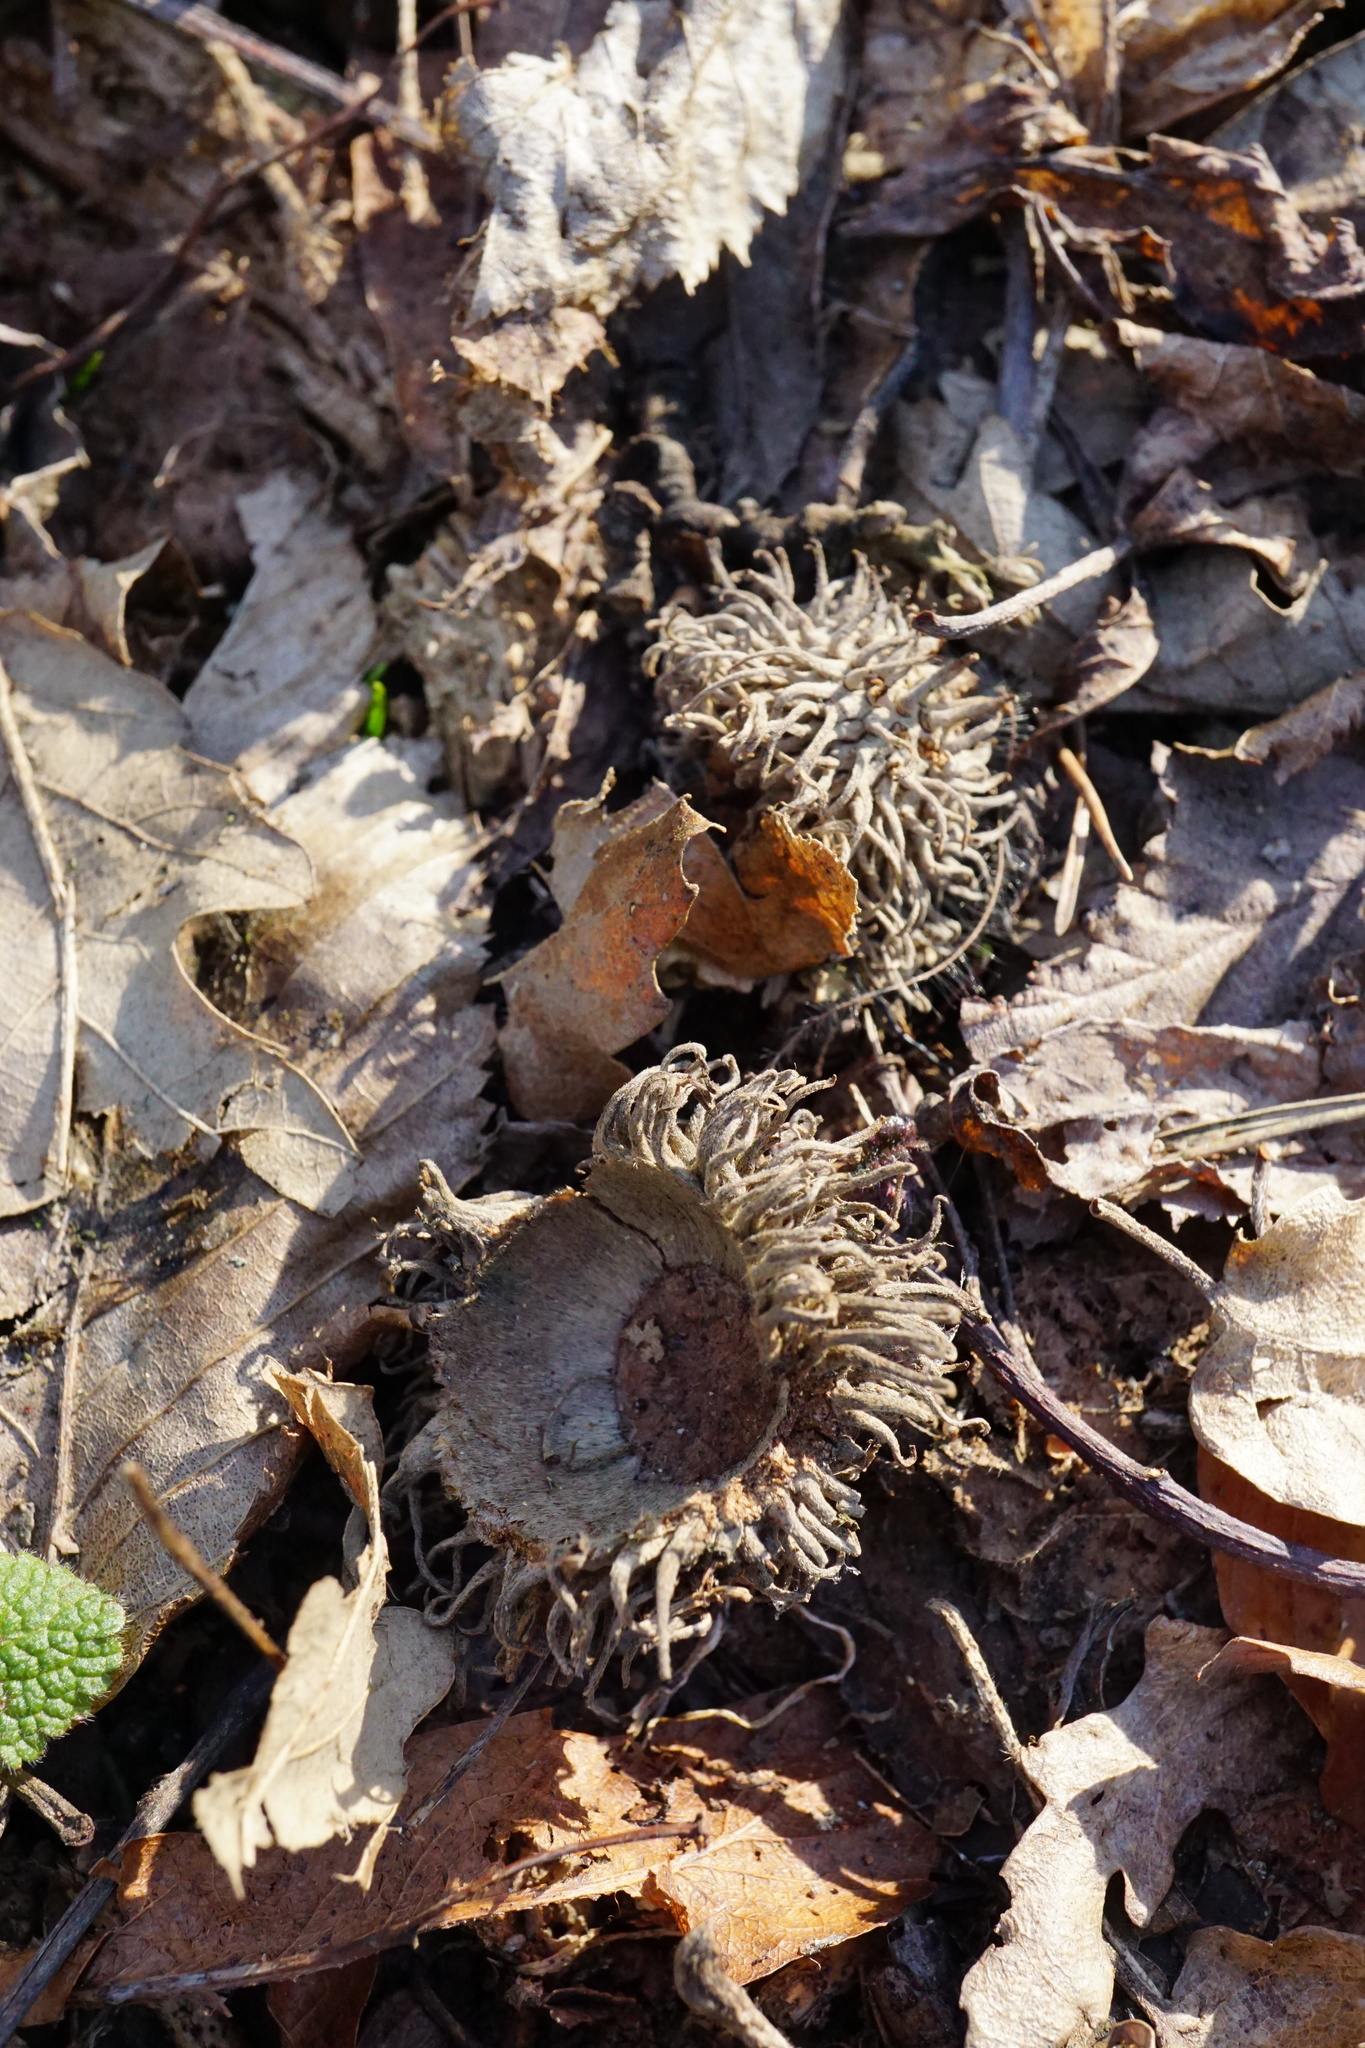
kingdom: Plantae
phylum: Tracheophyta
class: Magnoliopsida
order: Fagales
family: Fagaceae
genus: Quercus
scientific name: Quercus cerris
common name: Turkey oak
